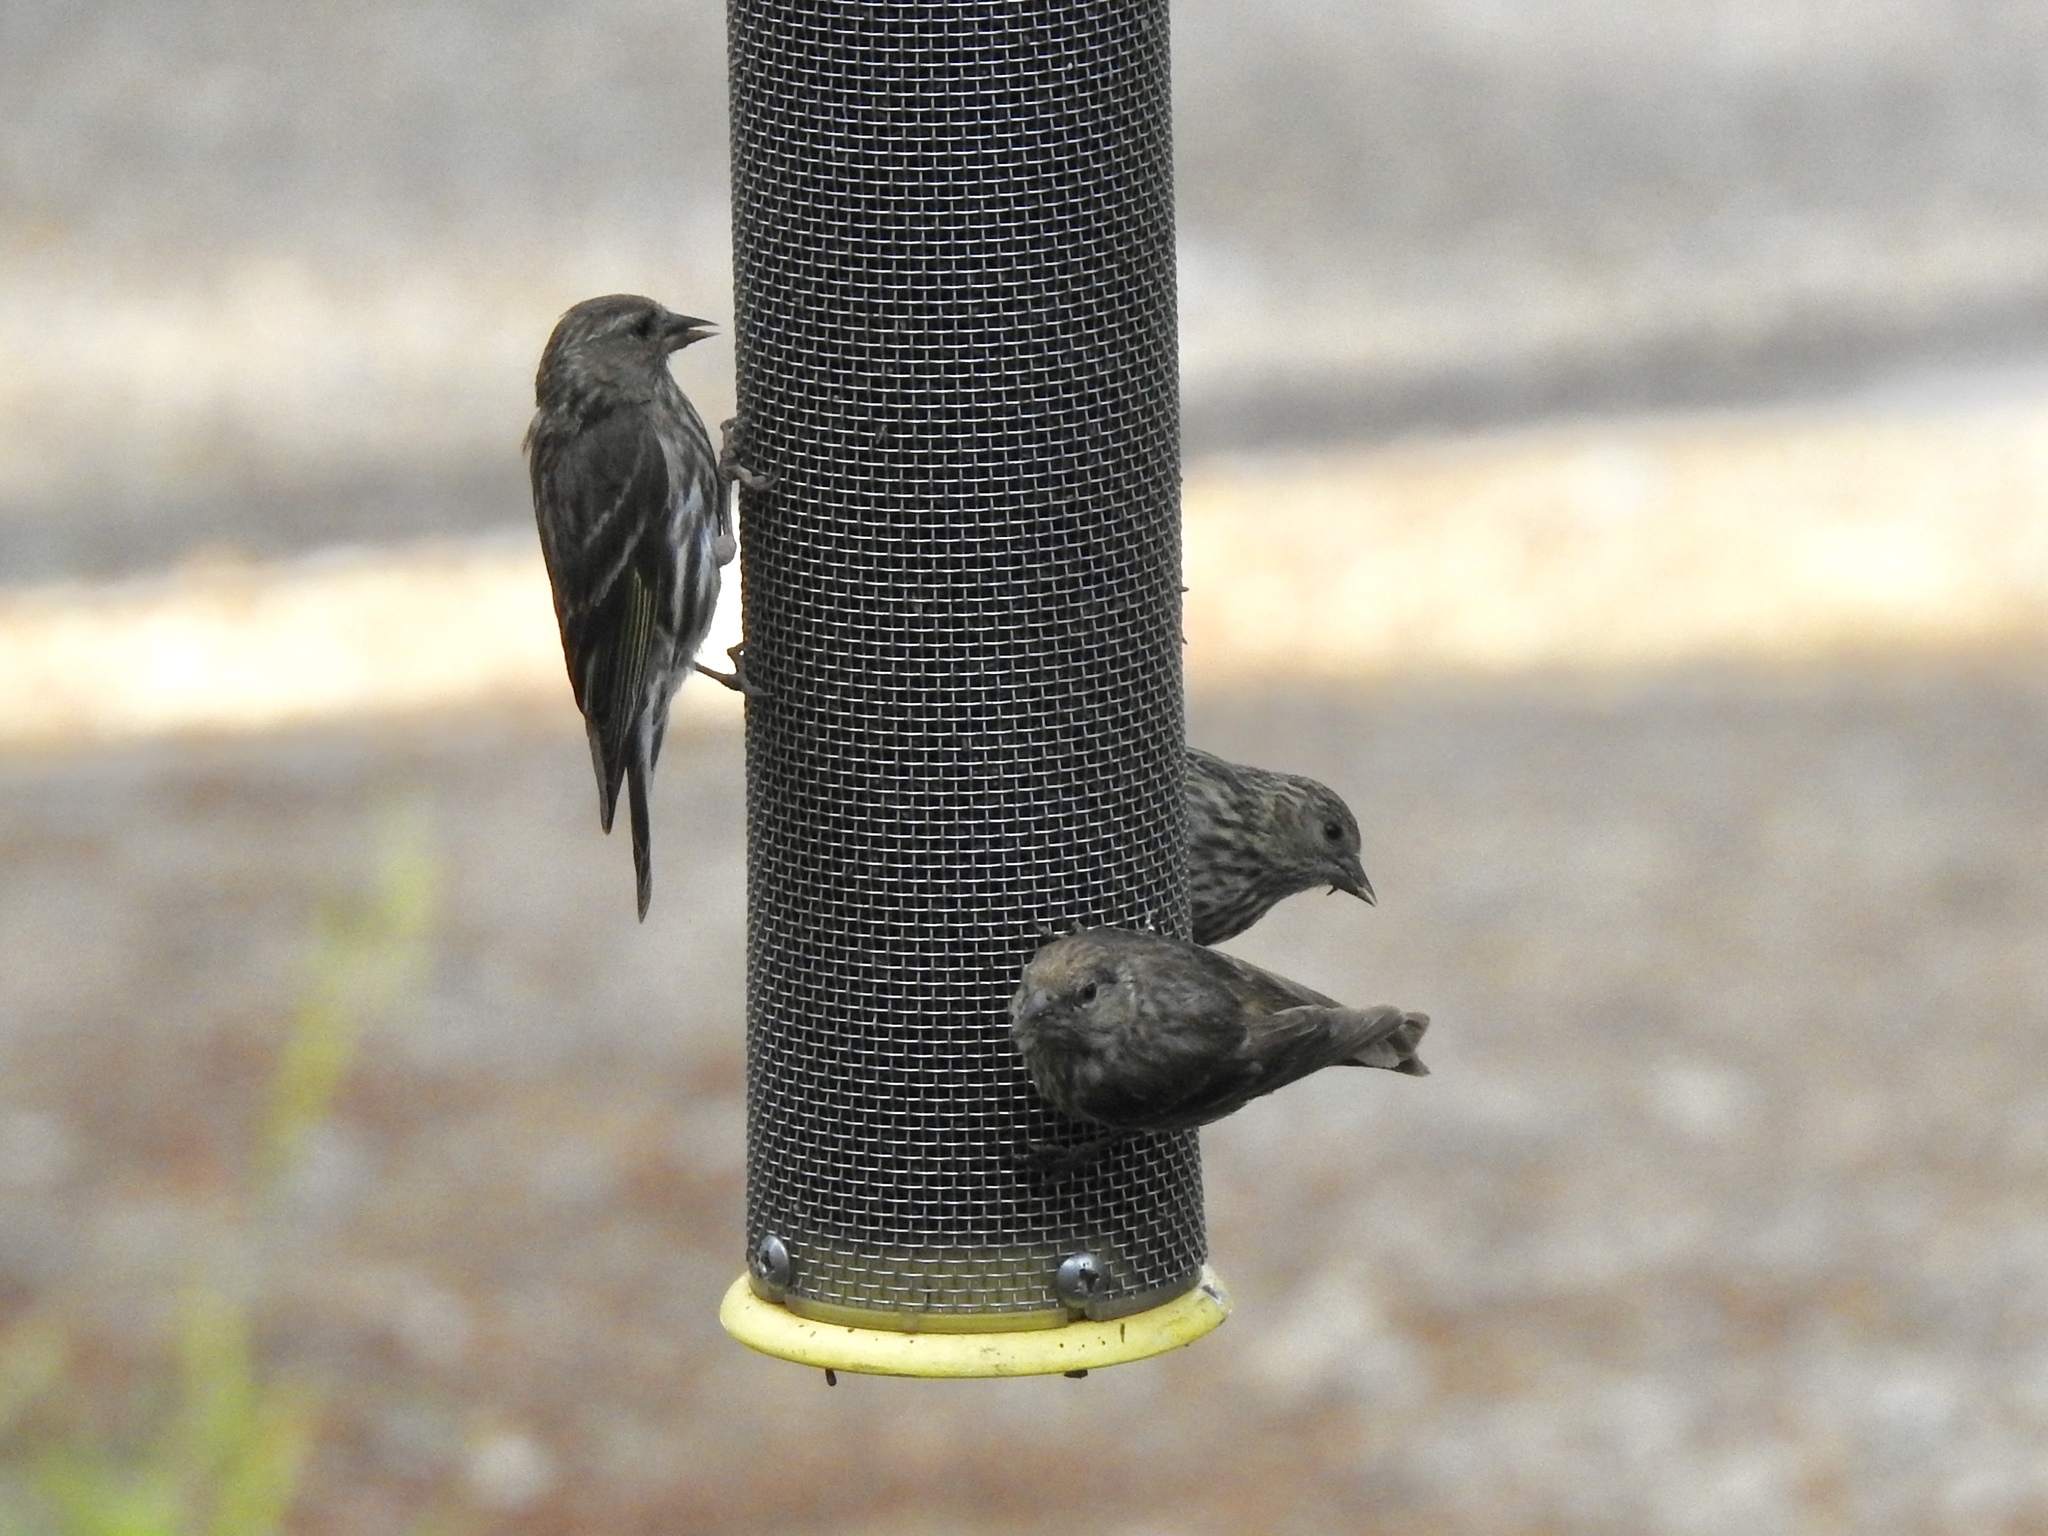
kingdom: Animalia
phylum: Chordata
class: Aves
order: Passeriformes
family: Fringillidae
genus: Spinus
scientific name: Spinus pinus
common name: Pine siskin
